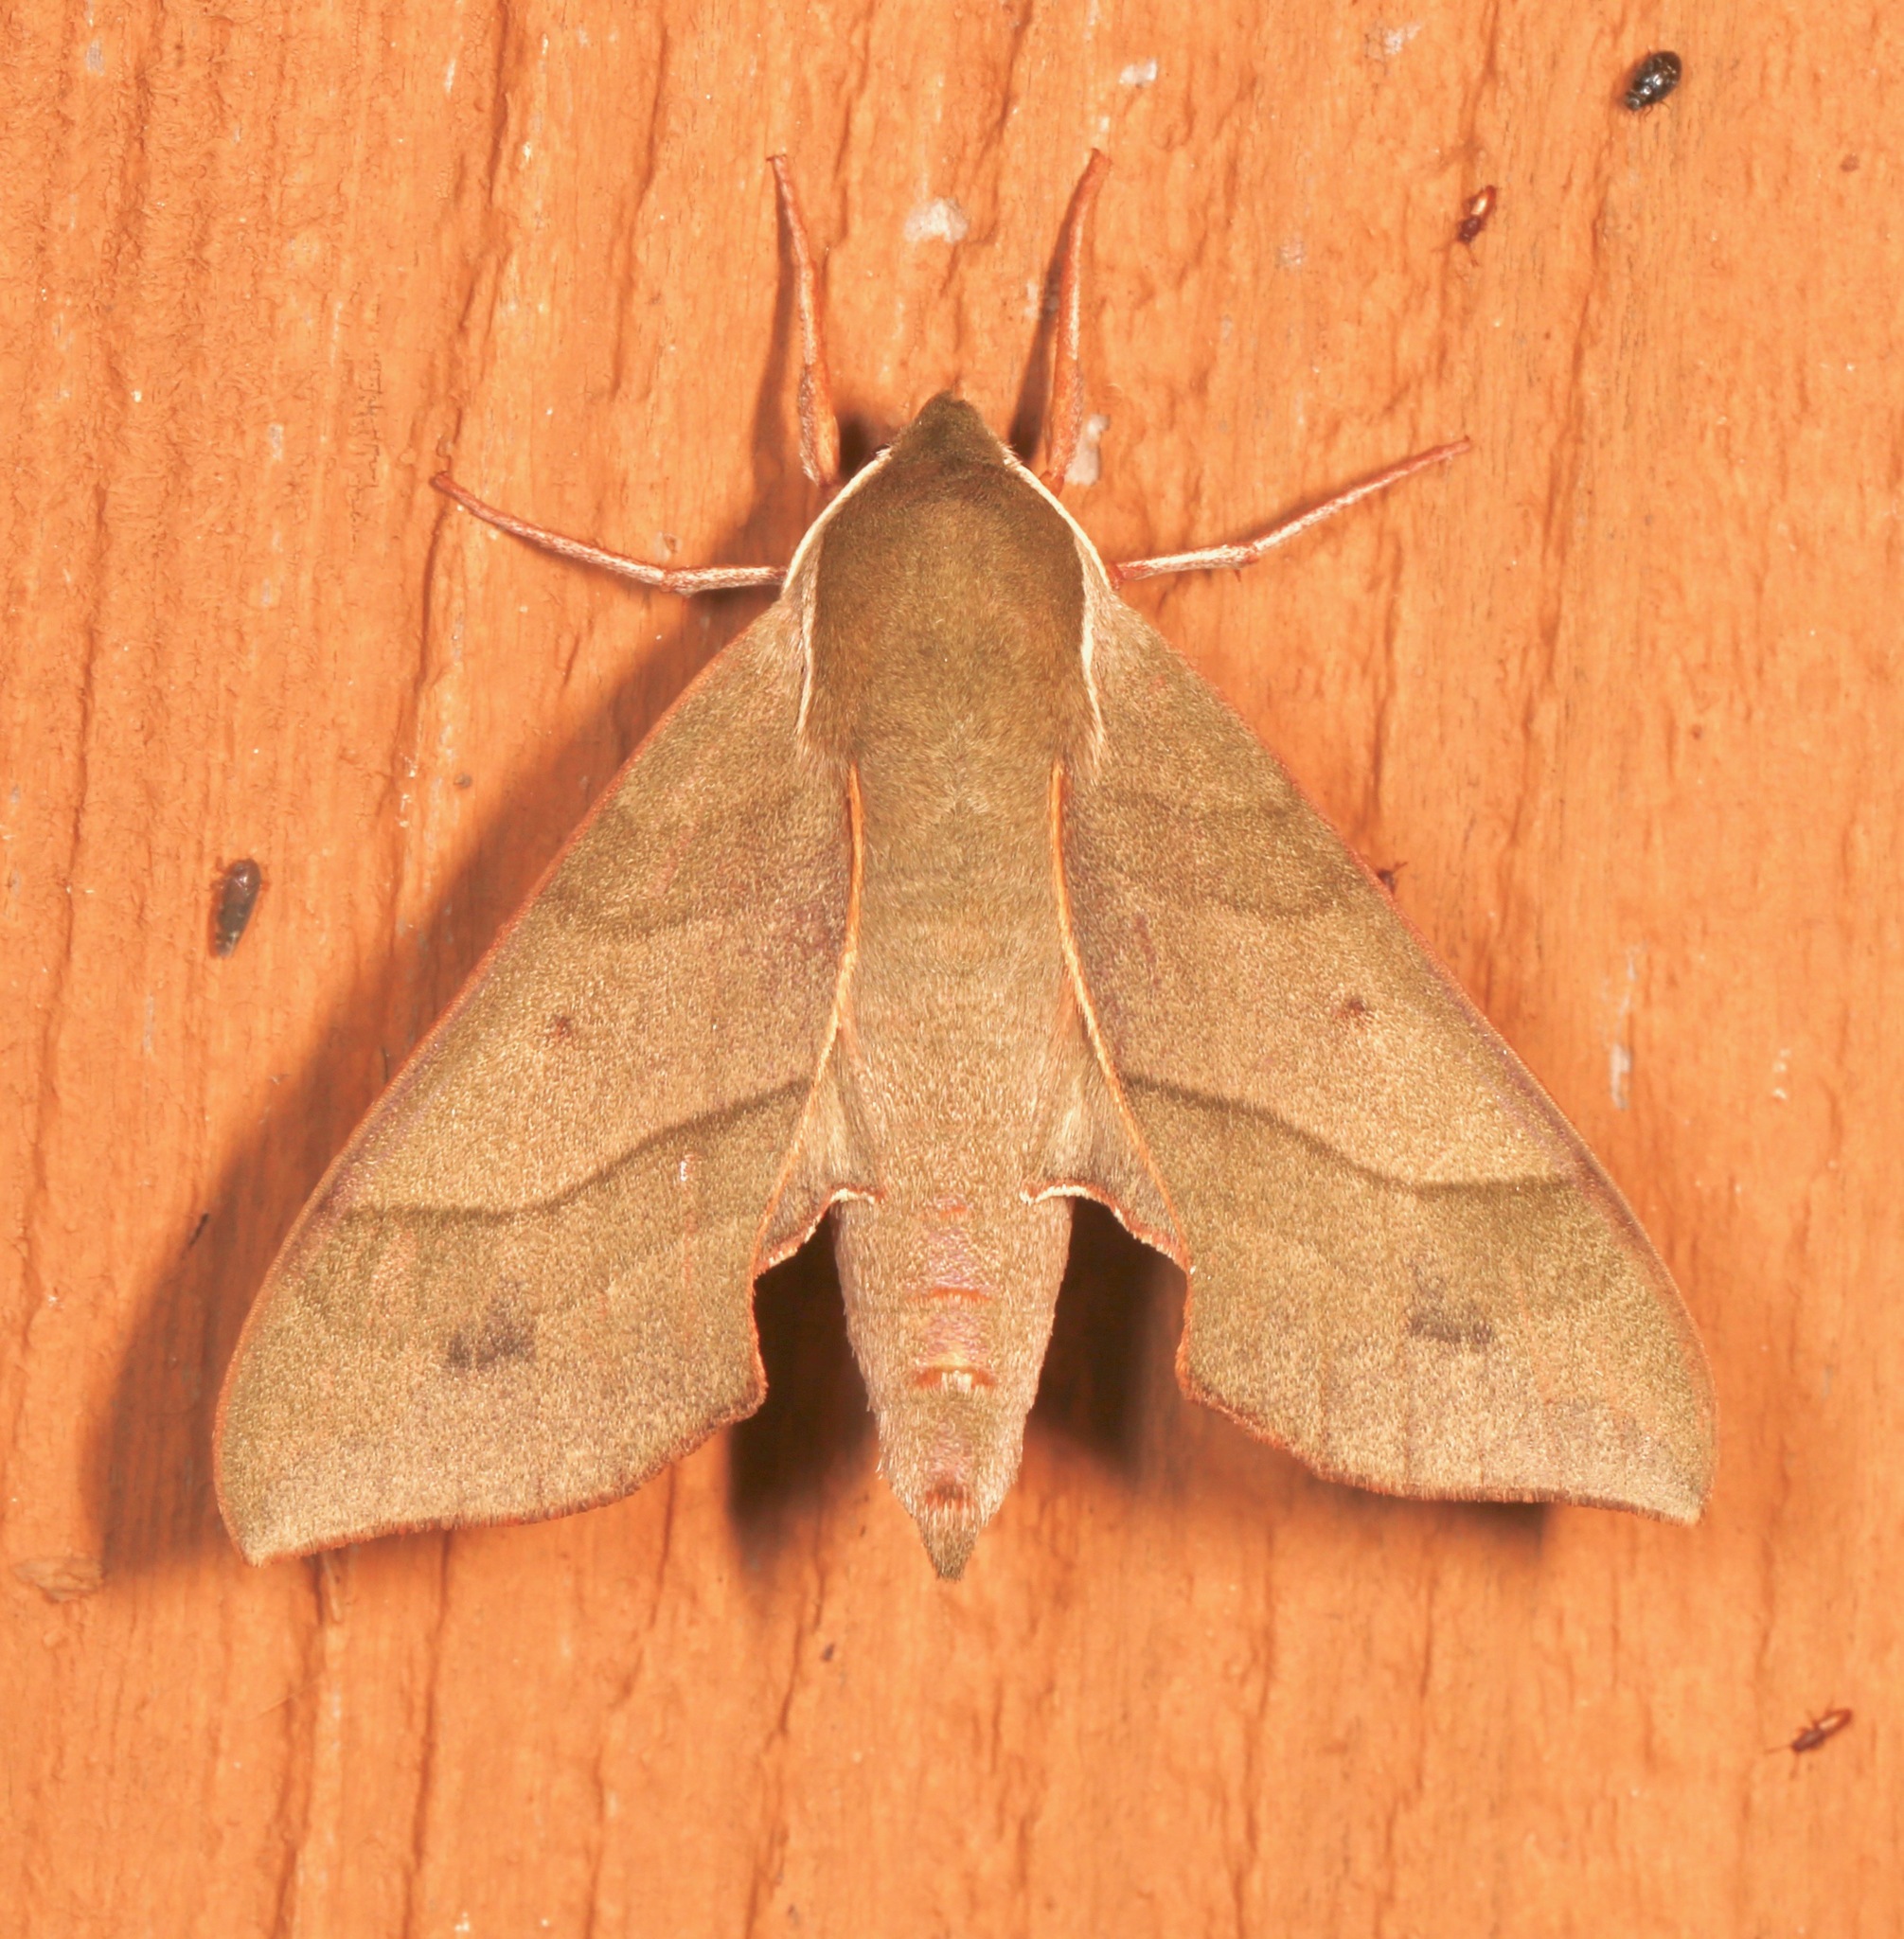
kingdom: Animalia
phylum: Arthropoda
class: Insecta
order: Lepidoptera
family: Sphingidae
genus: Darapsa
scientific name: Darapsa myron
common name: Hog sphinx
